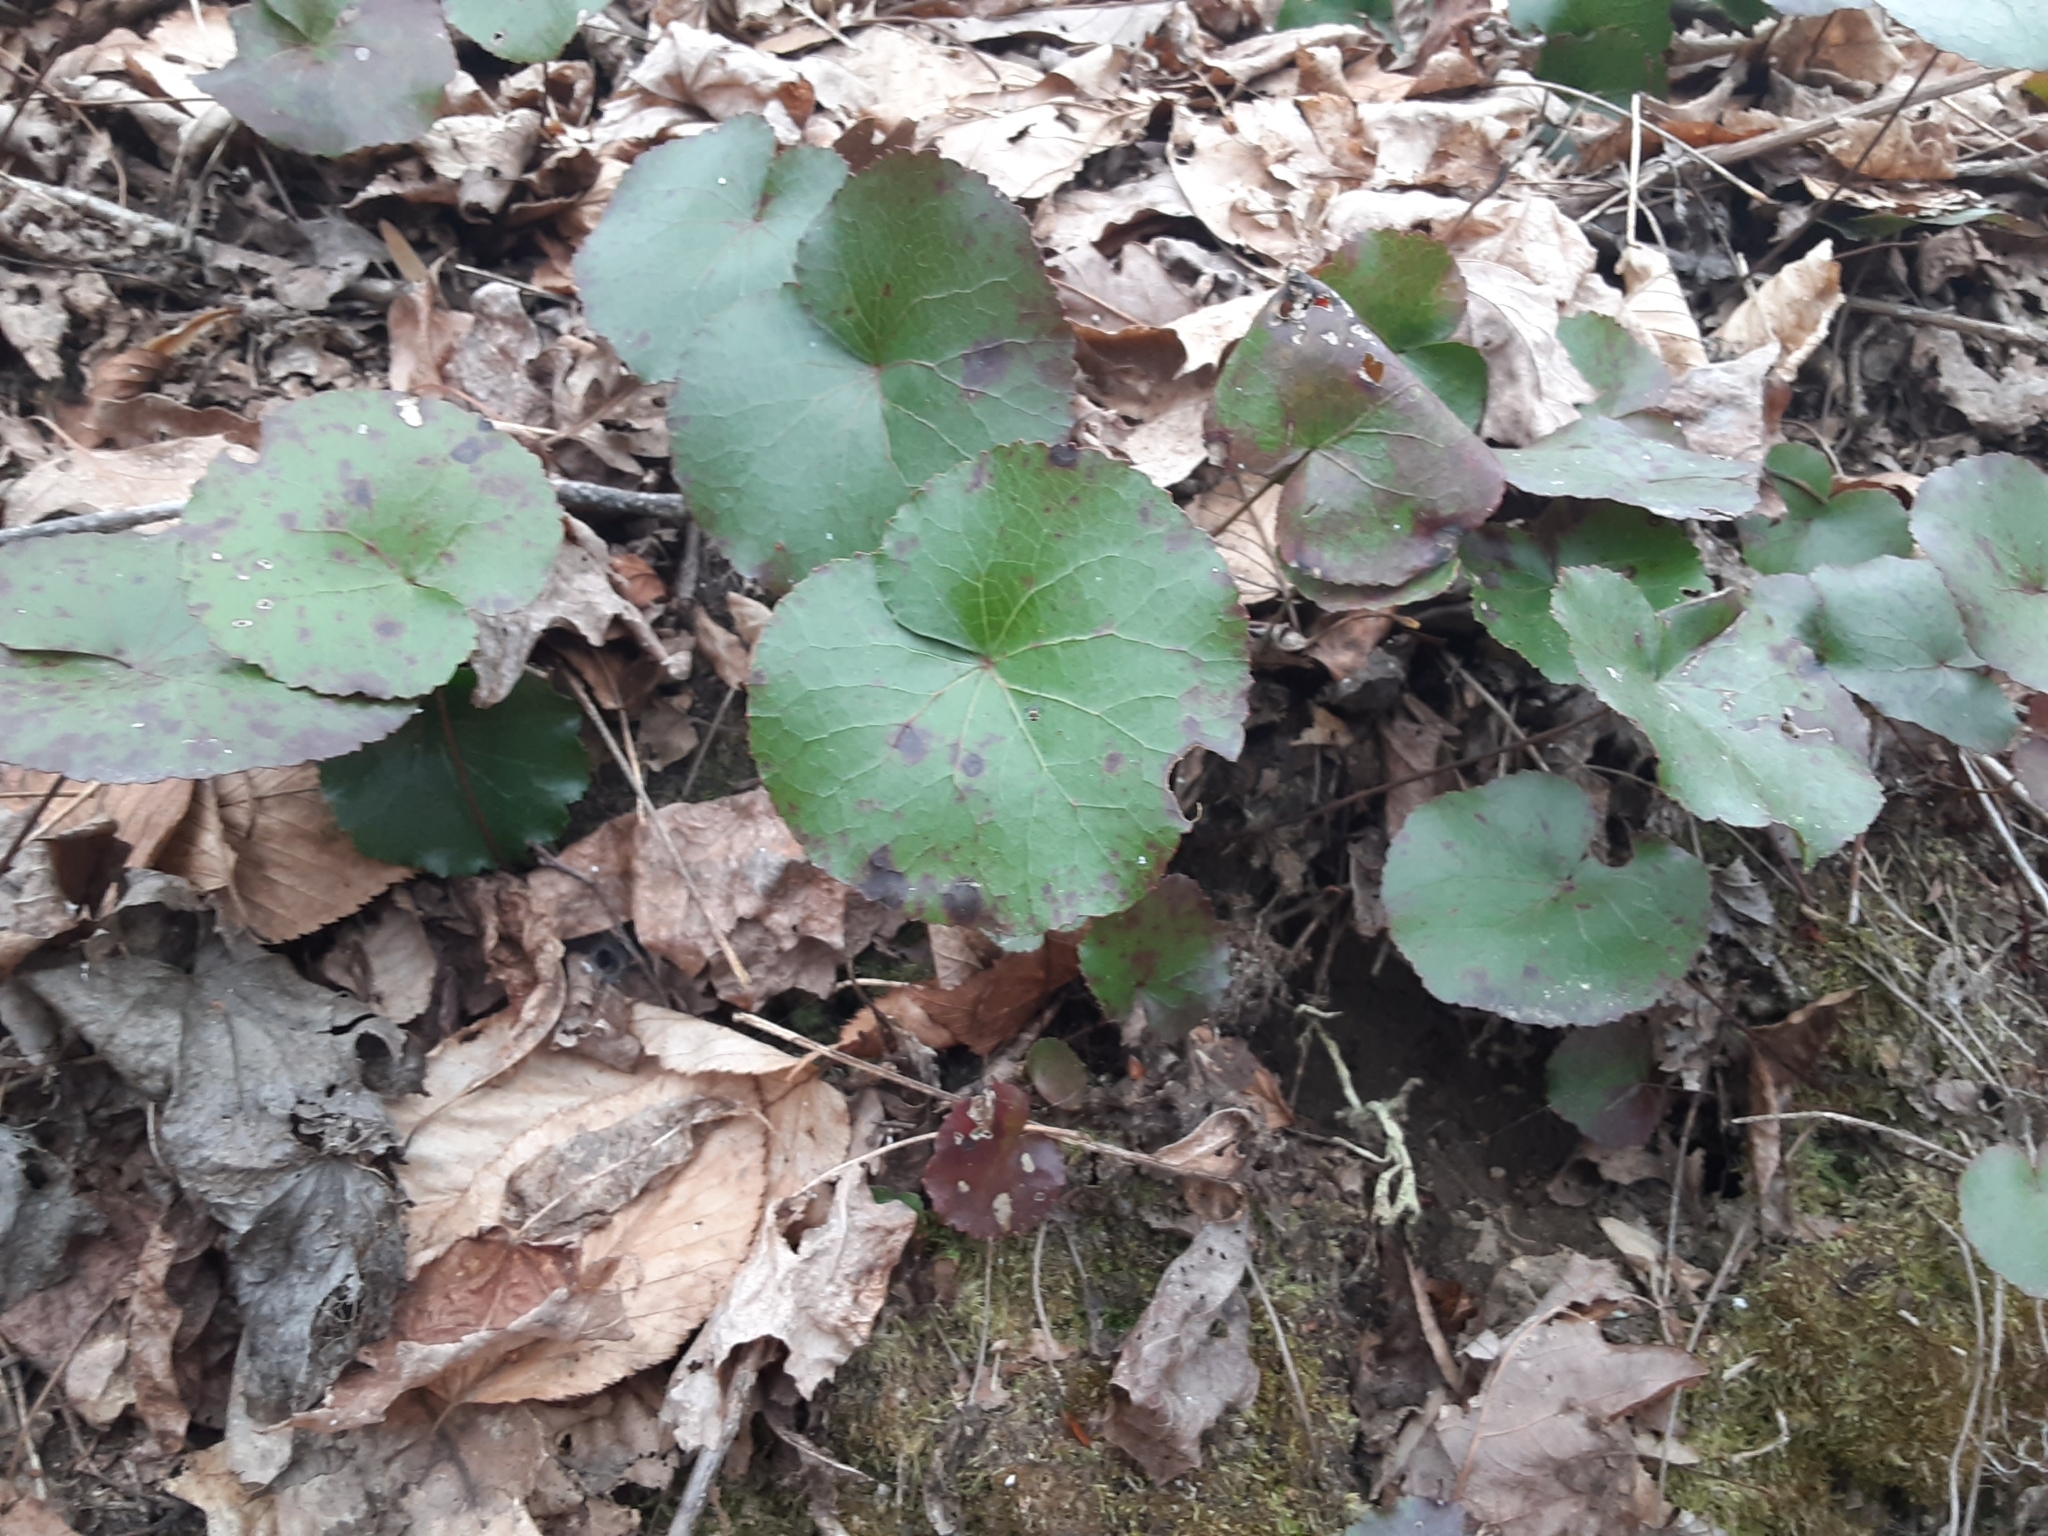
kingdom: Plantae
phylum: Tracheophyta
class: Magnoliopsida
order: Ericales
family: Diapensiaceae
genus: Galax
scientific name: Galax urceolata
